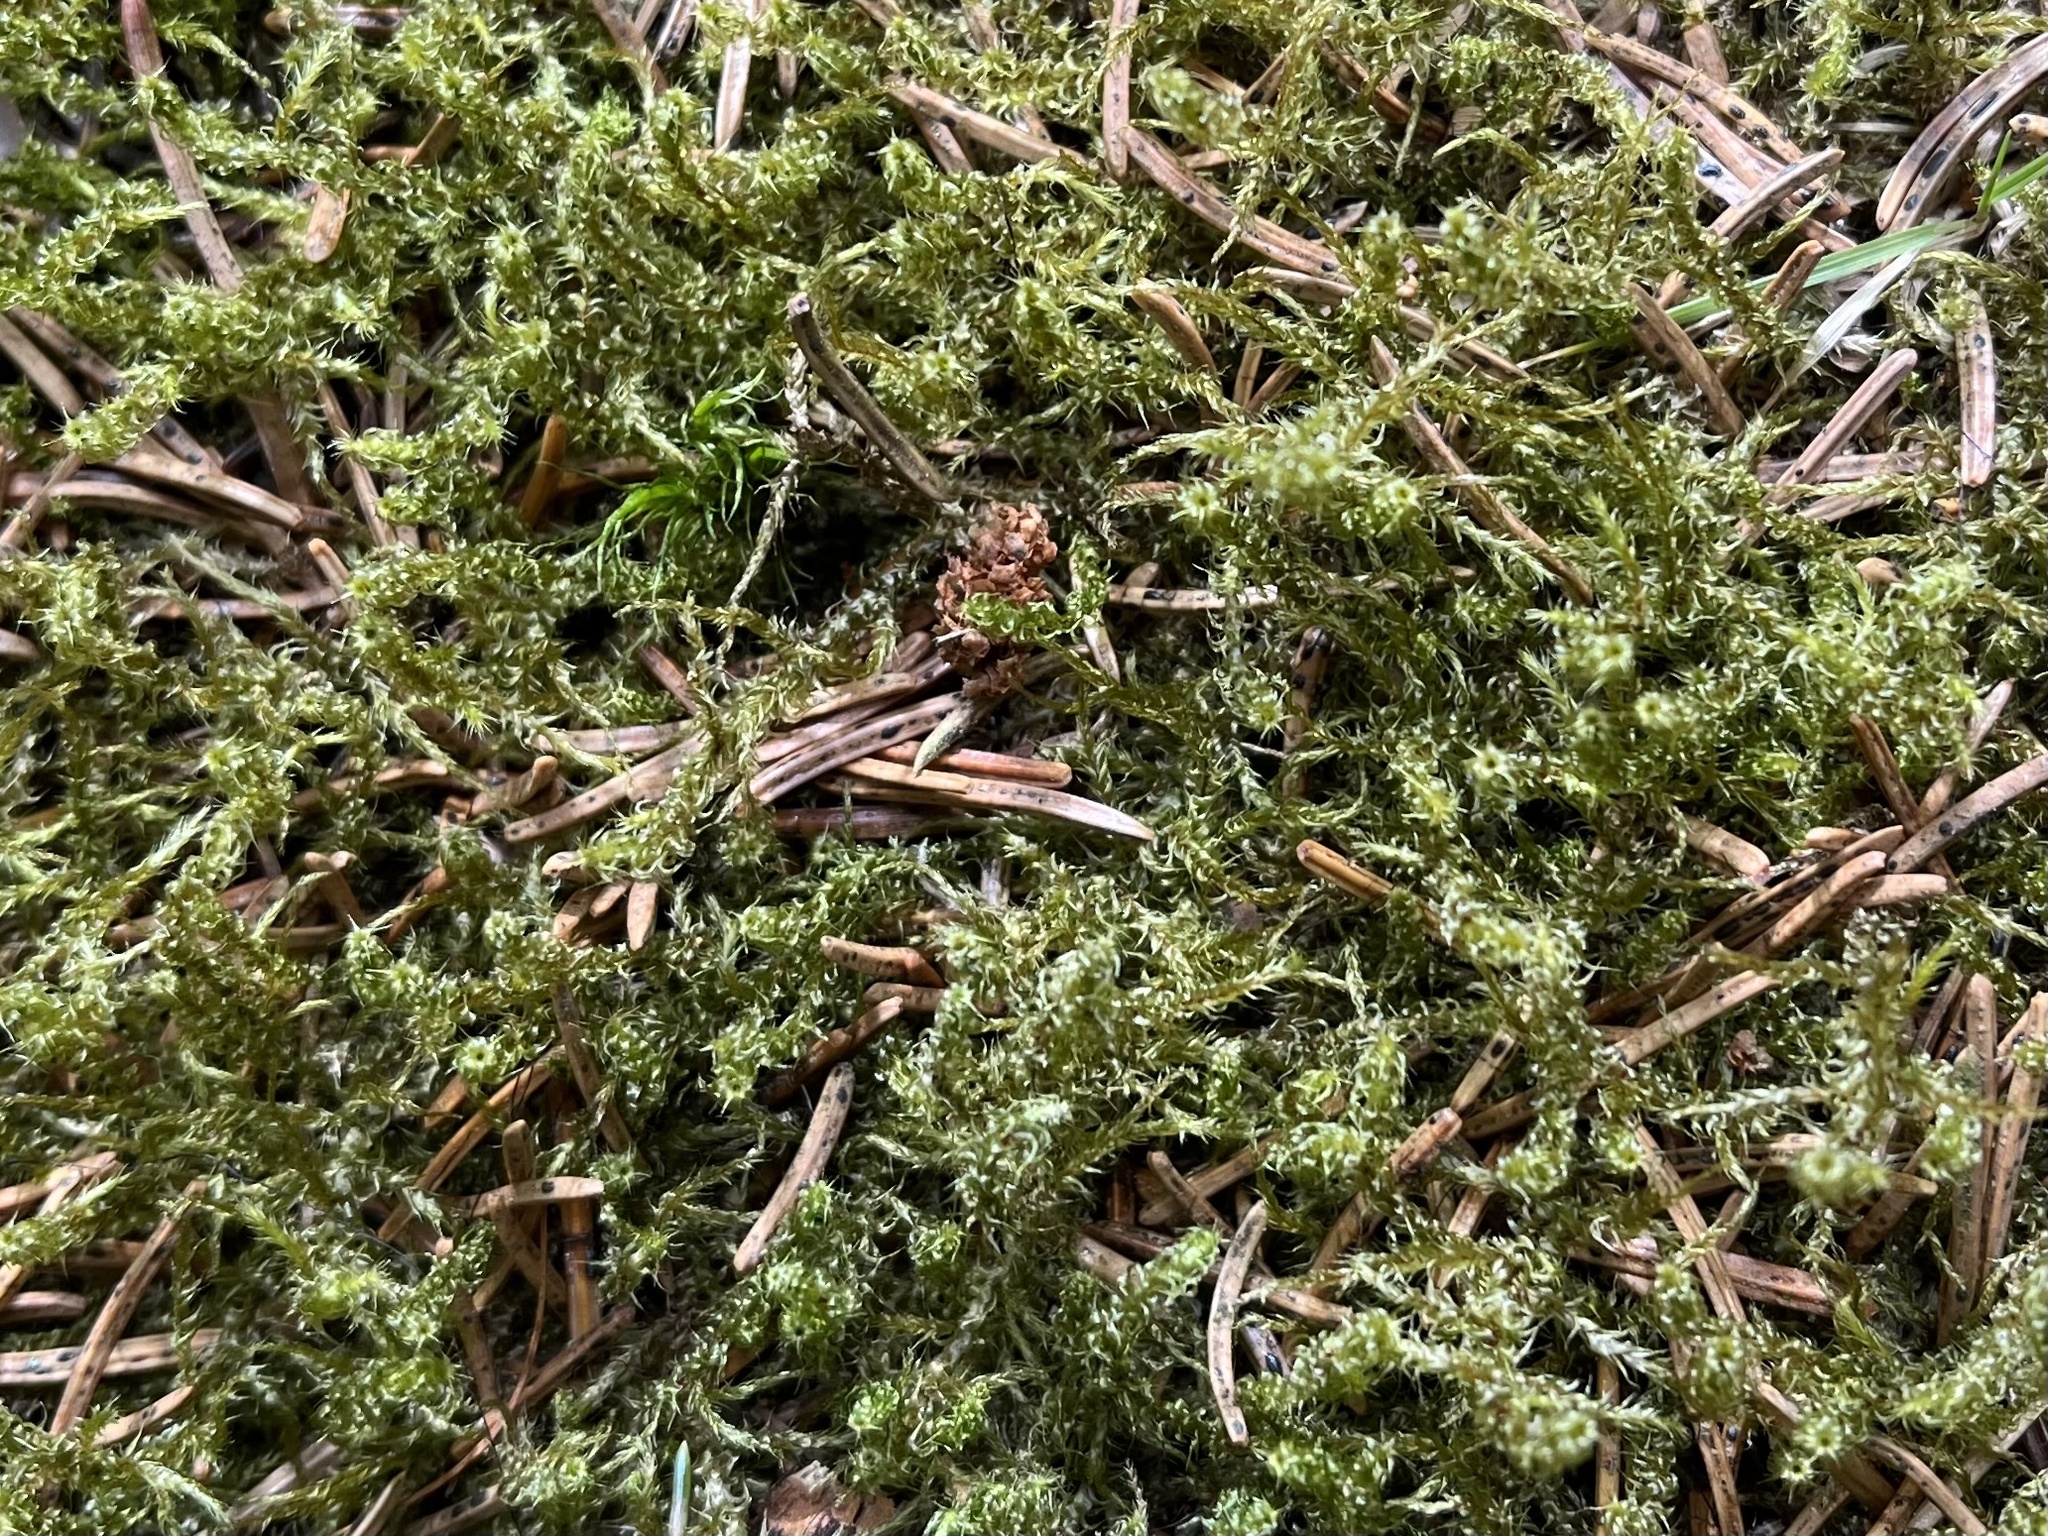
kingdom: Plantae
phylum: Bryophyta
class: Bryopsida
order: Hypnales
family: Hylocomiaceae
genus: Rhytidiadelphus
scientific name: Rhytidiadelphus squarrosus
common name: Springy turf-moss
